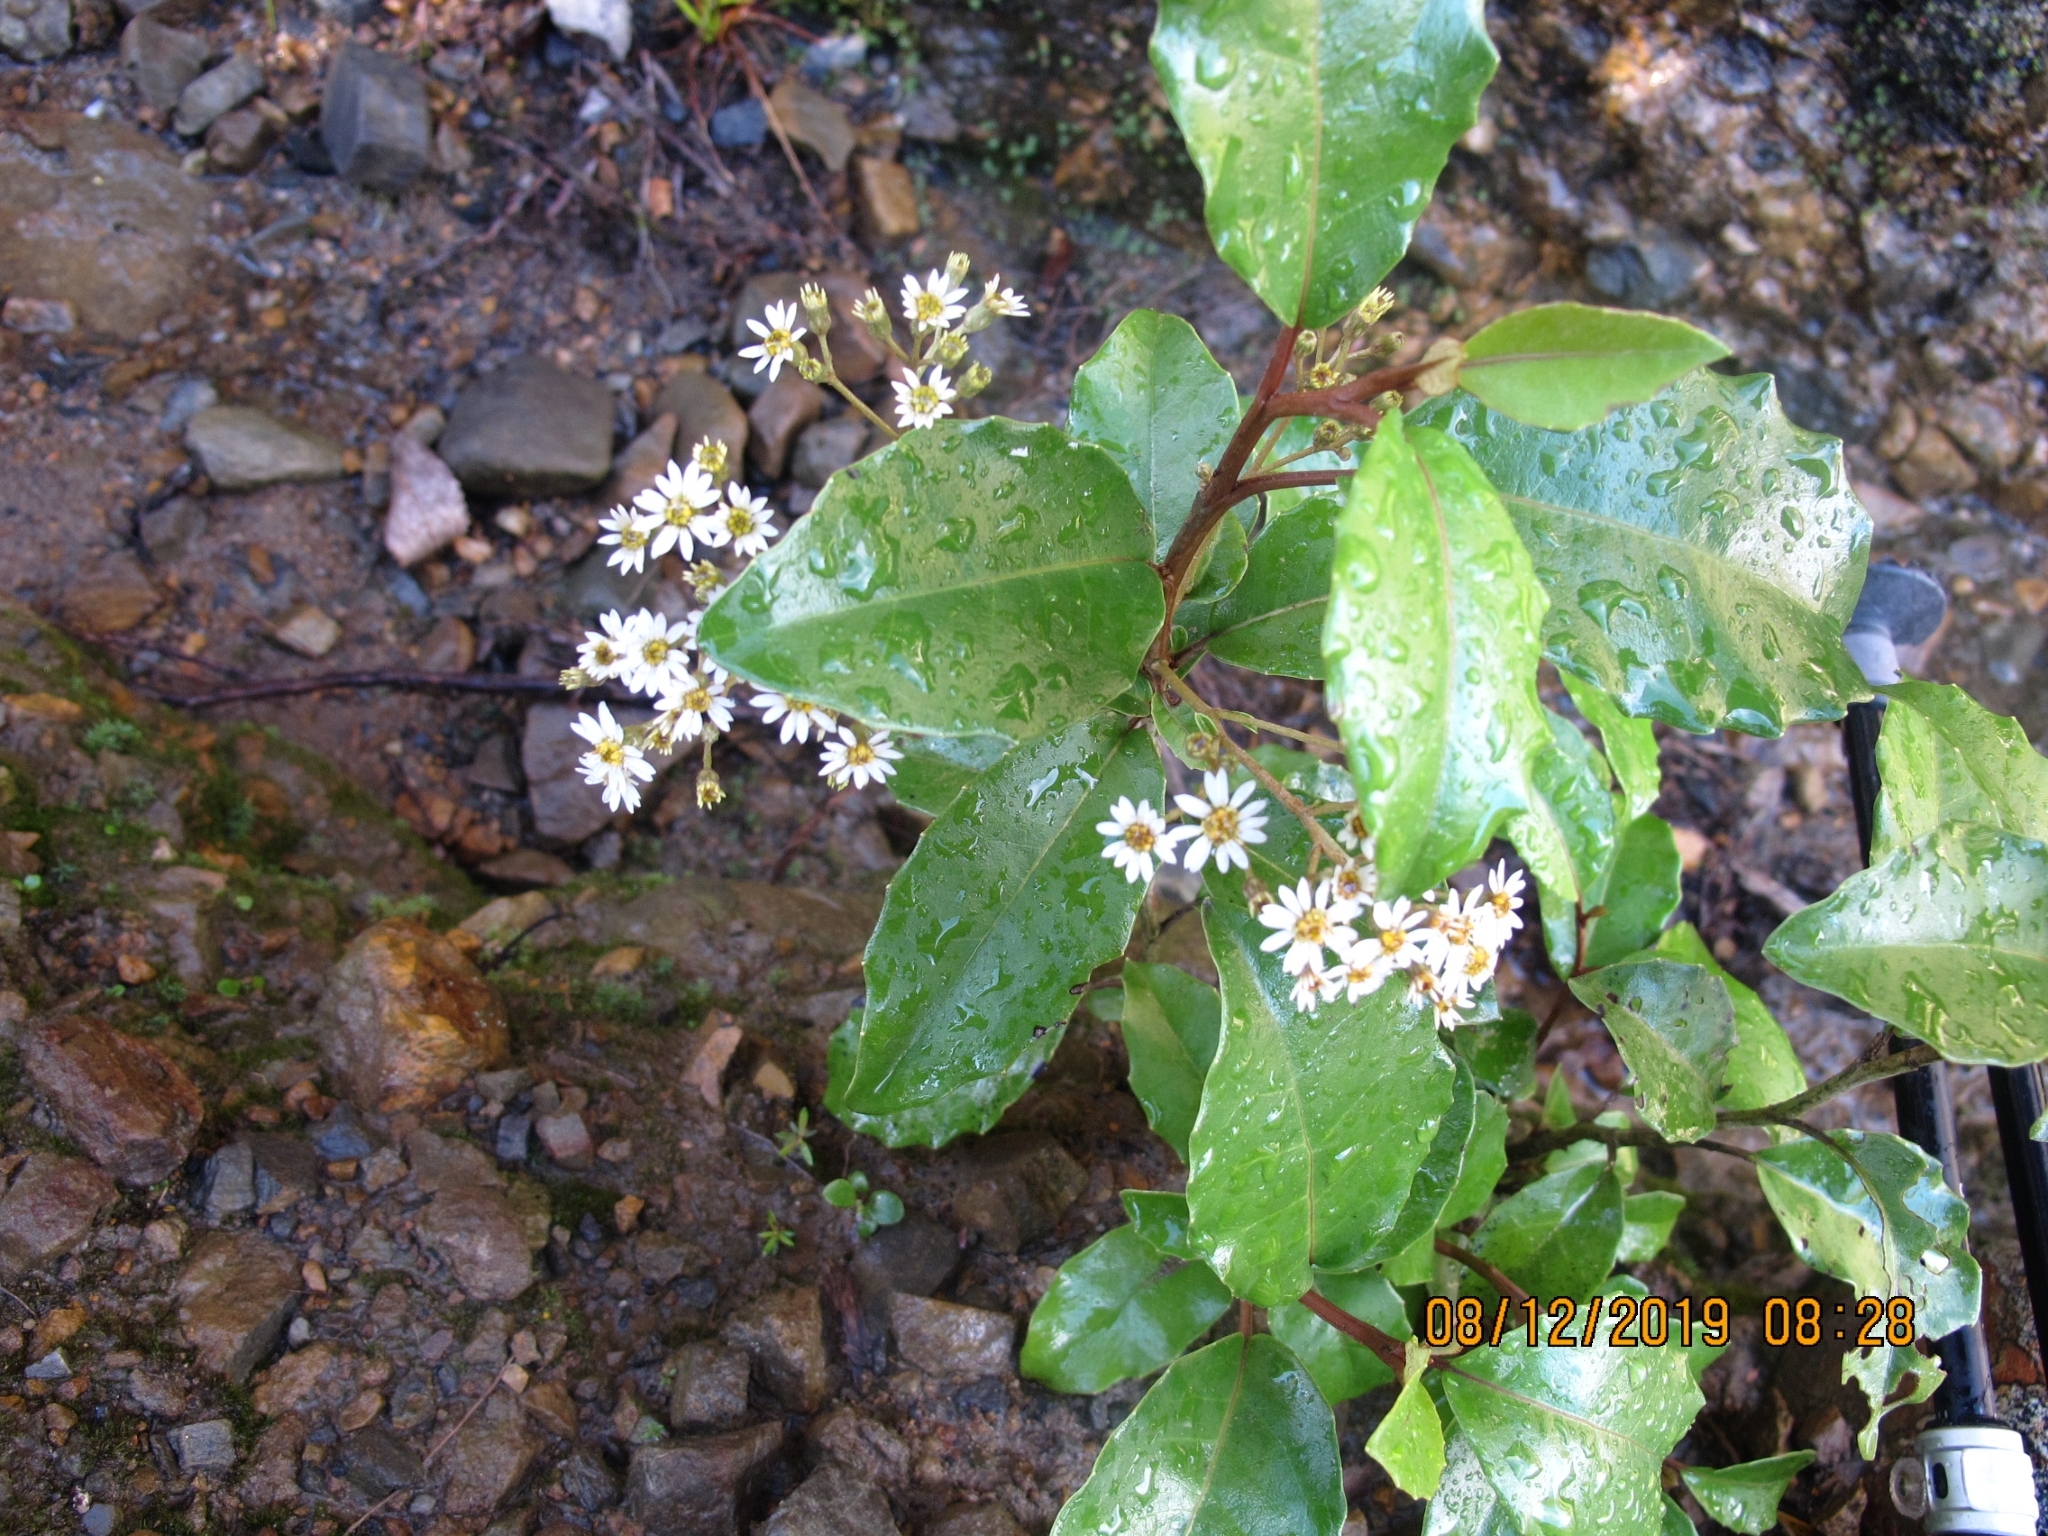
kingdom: Plantae
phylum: Tracheophyta
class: Magnoliopsida
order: Asterales
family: Asteraceae
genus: Olearia
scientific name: Olearia arborescens
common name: Glossy tree daisy
